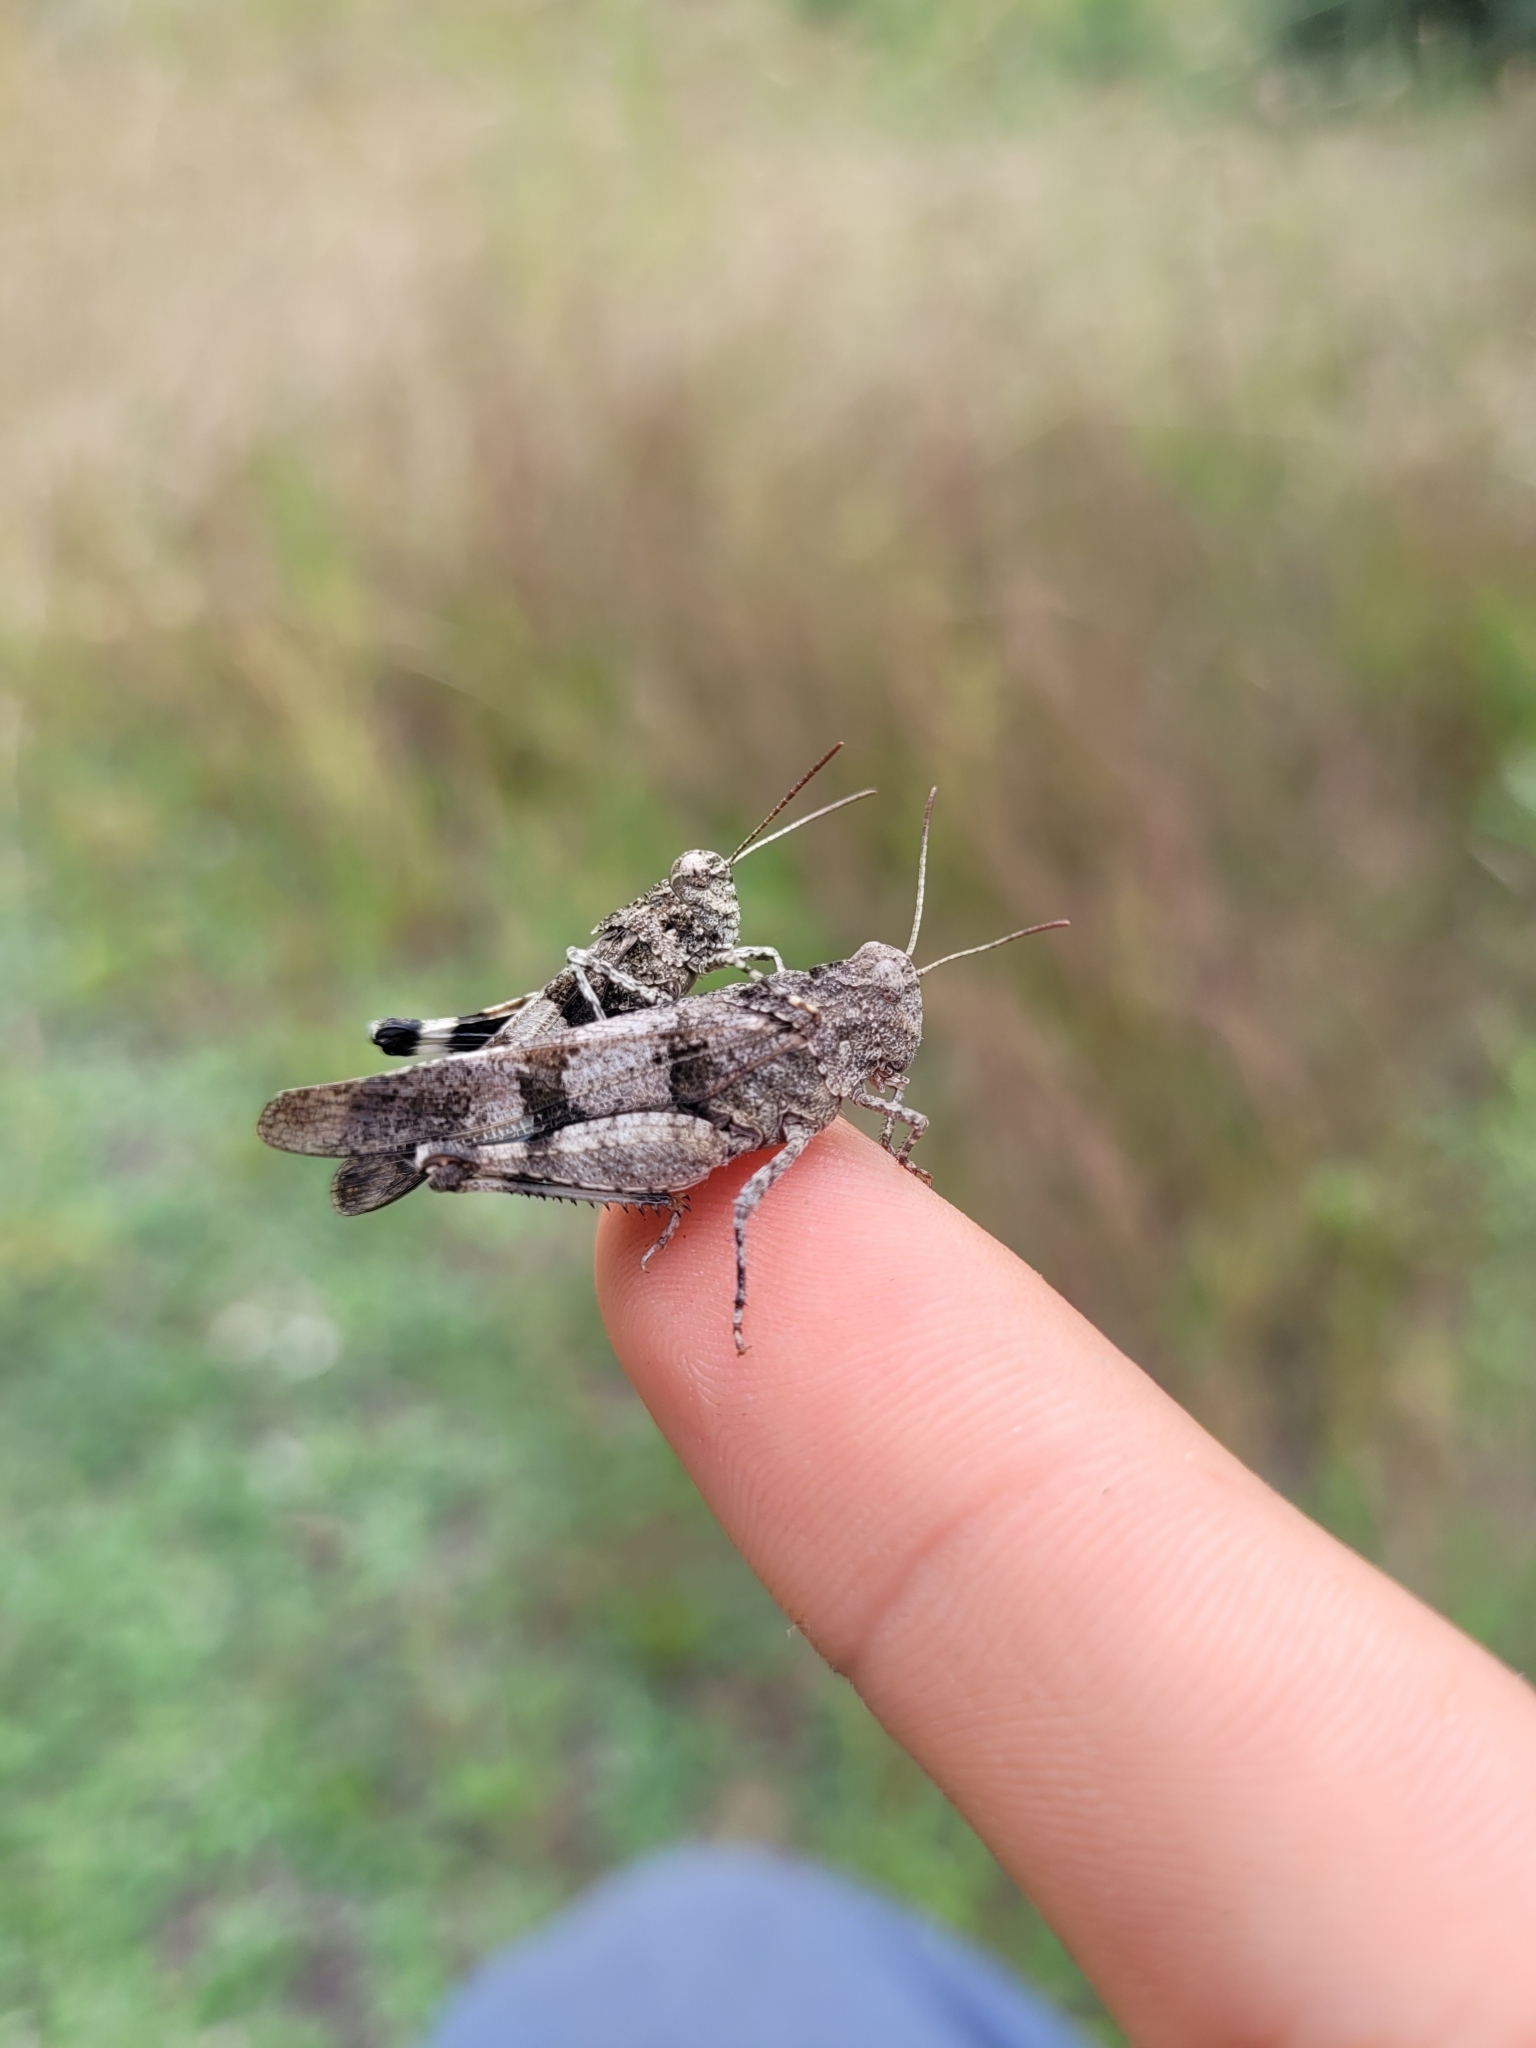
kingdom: Animalia
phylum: Arthropoda
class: Insecta
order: Orthoptera
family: Acrididae
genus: Oedipoda
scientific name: Oedipoda caerulescens
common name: Blue-winged grasshopper
